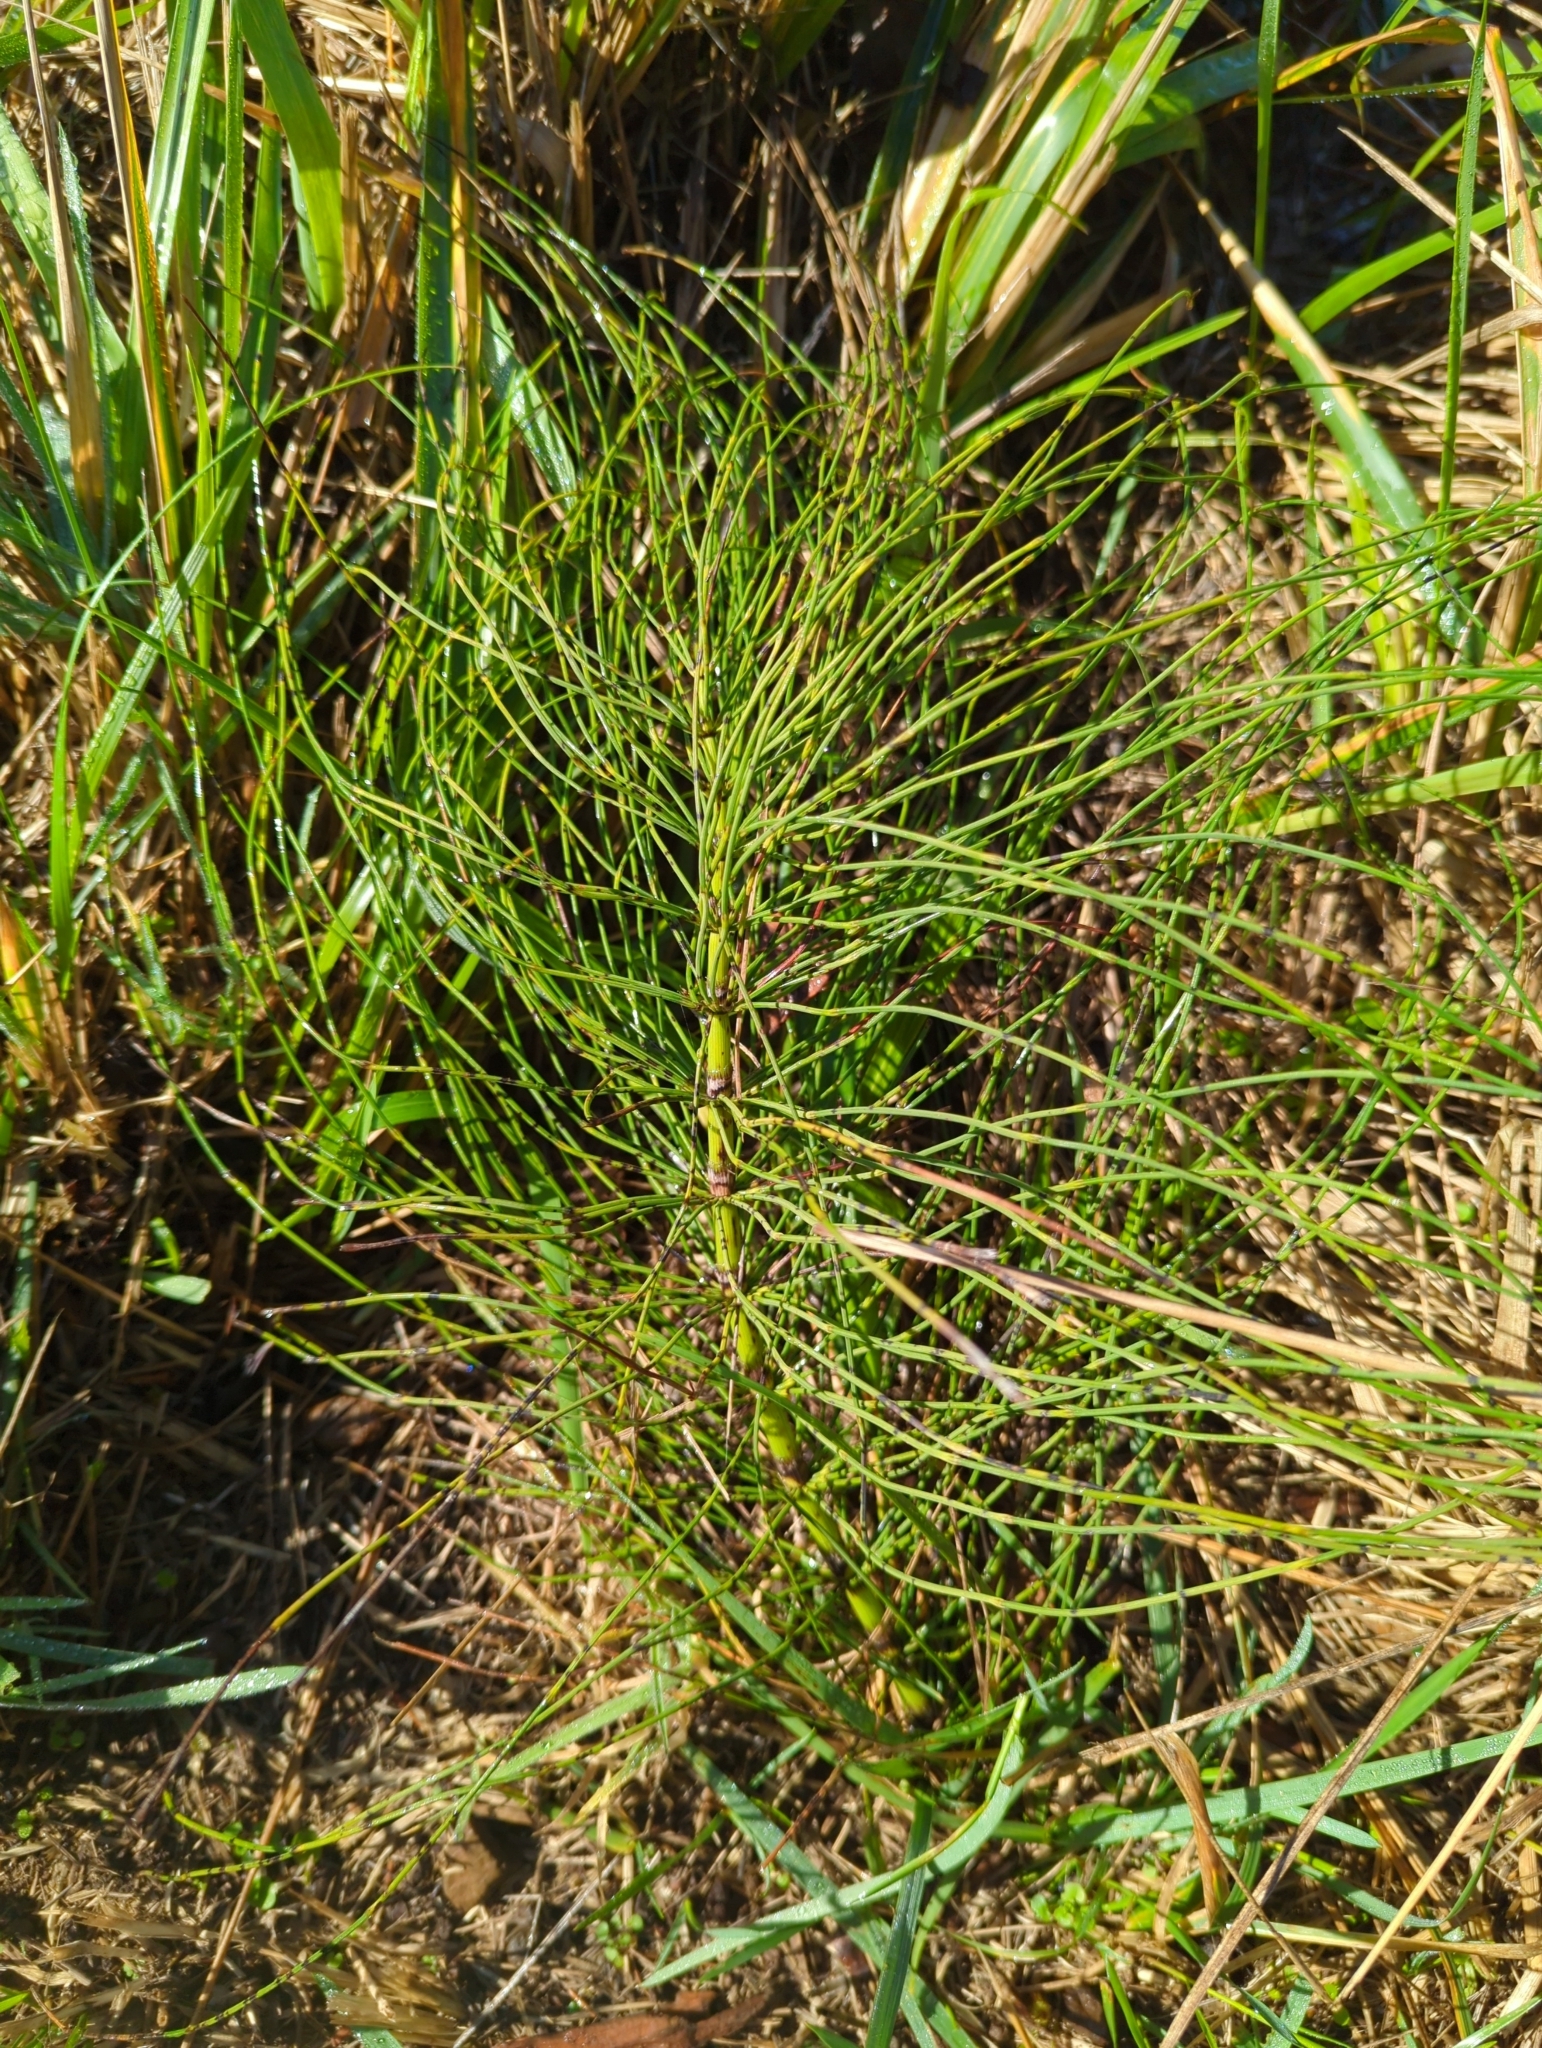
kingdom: Plantae
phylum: Tracheophyta
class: Polypodiopsida
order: Equisetales
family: Equisetaceae
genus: Equisetum
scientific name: Equisetum braunii
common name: Braun's horsetail
